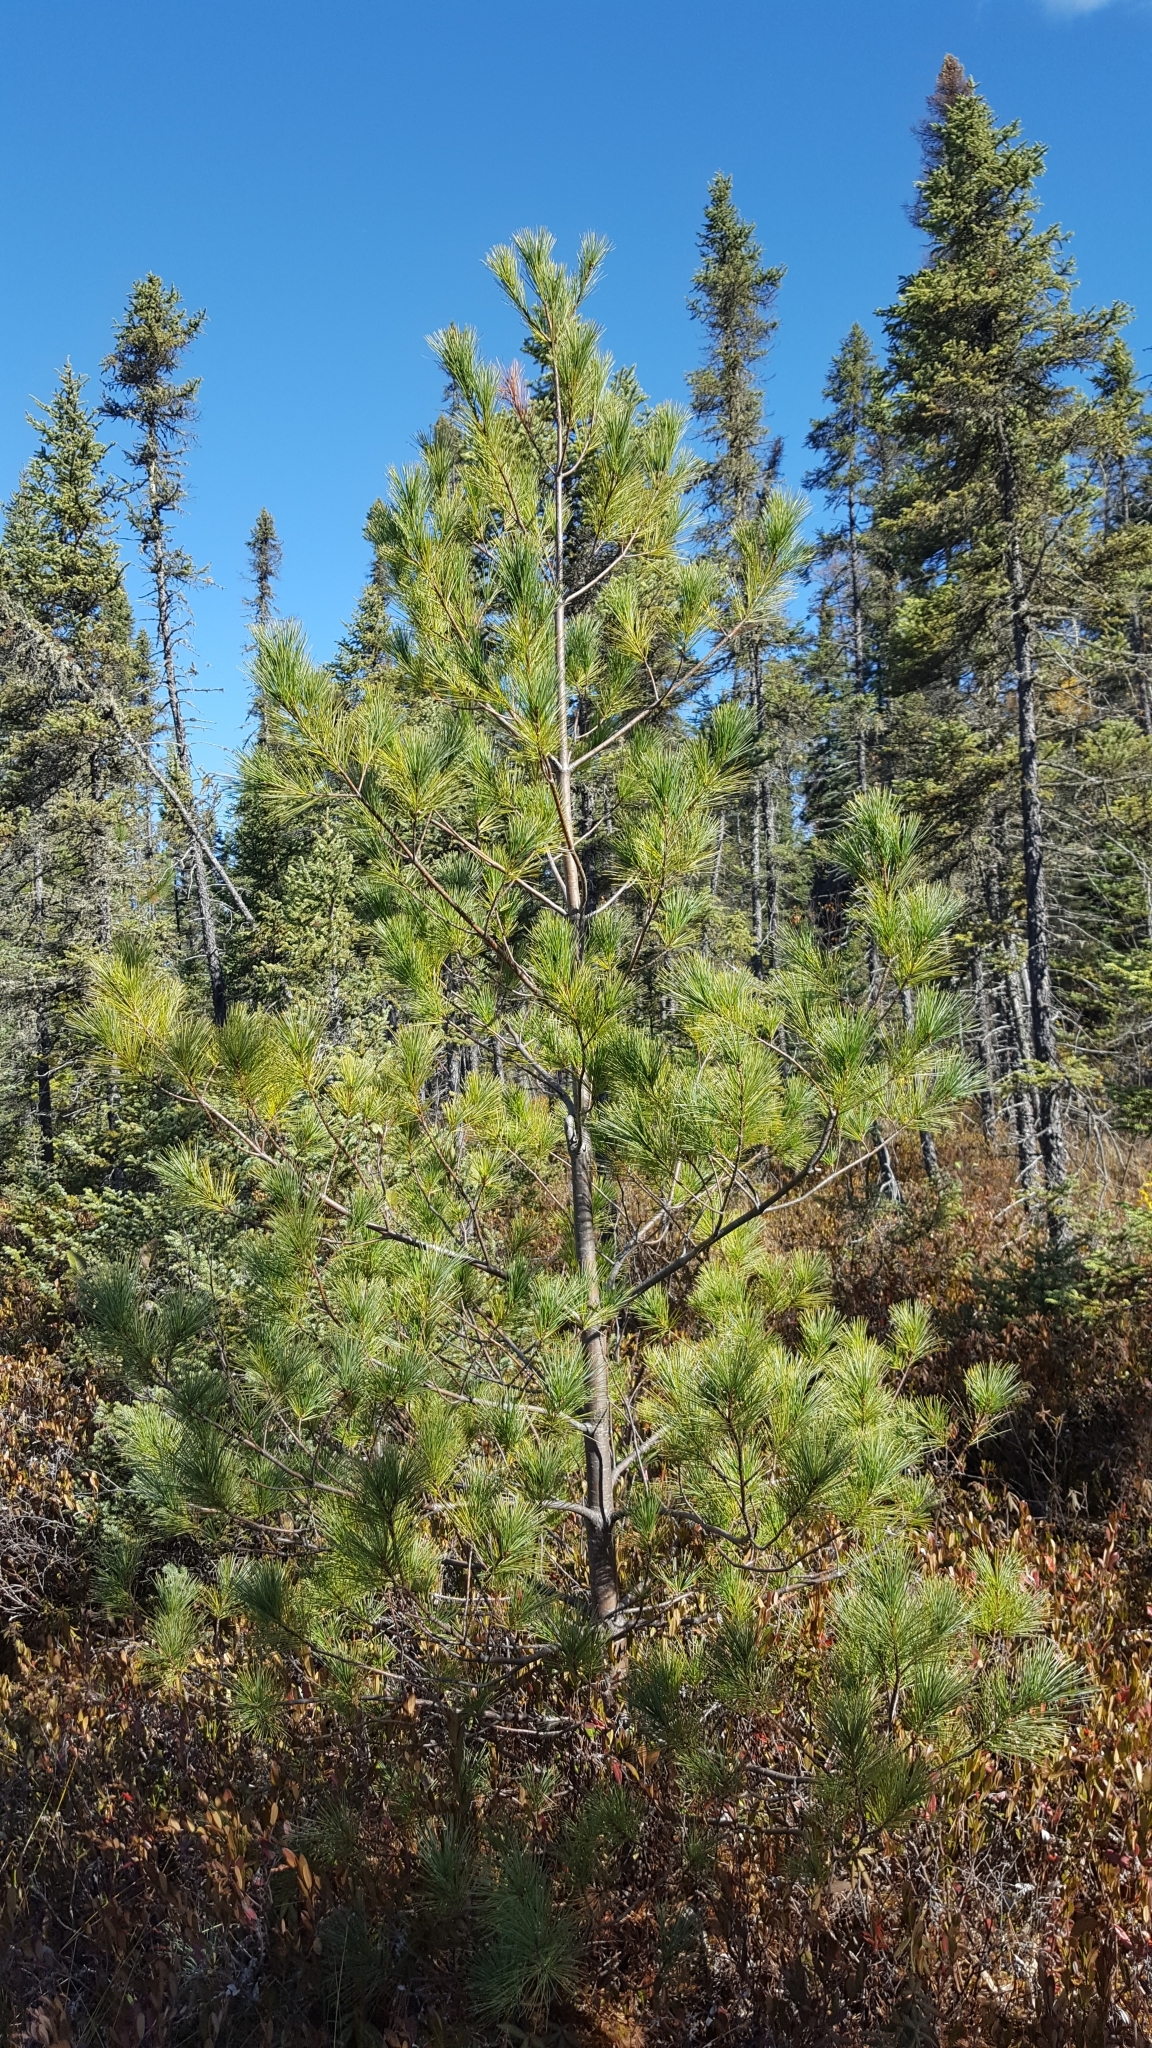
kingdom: Plantae
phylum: Tracheophyta
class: Pinopsida
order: Pinales
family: Pinaceae
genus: Pinus
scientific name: Pinus strobus
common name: Weymouth pine
